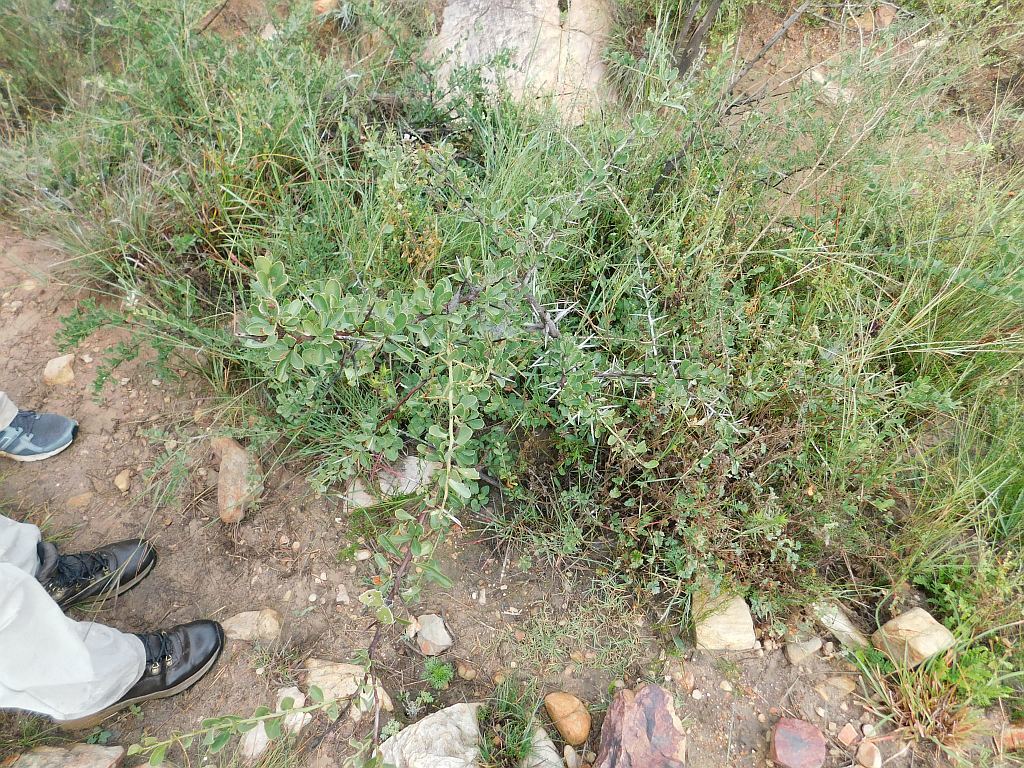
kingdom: Plantae
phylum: Tracheophyta
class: Magnoliopsida
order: Celastrales
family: Celastraceae
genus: Gymnosporia
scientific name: Gymnosporia buxifolia
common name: Common spike-thorn
